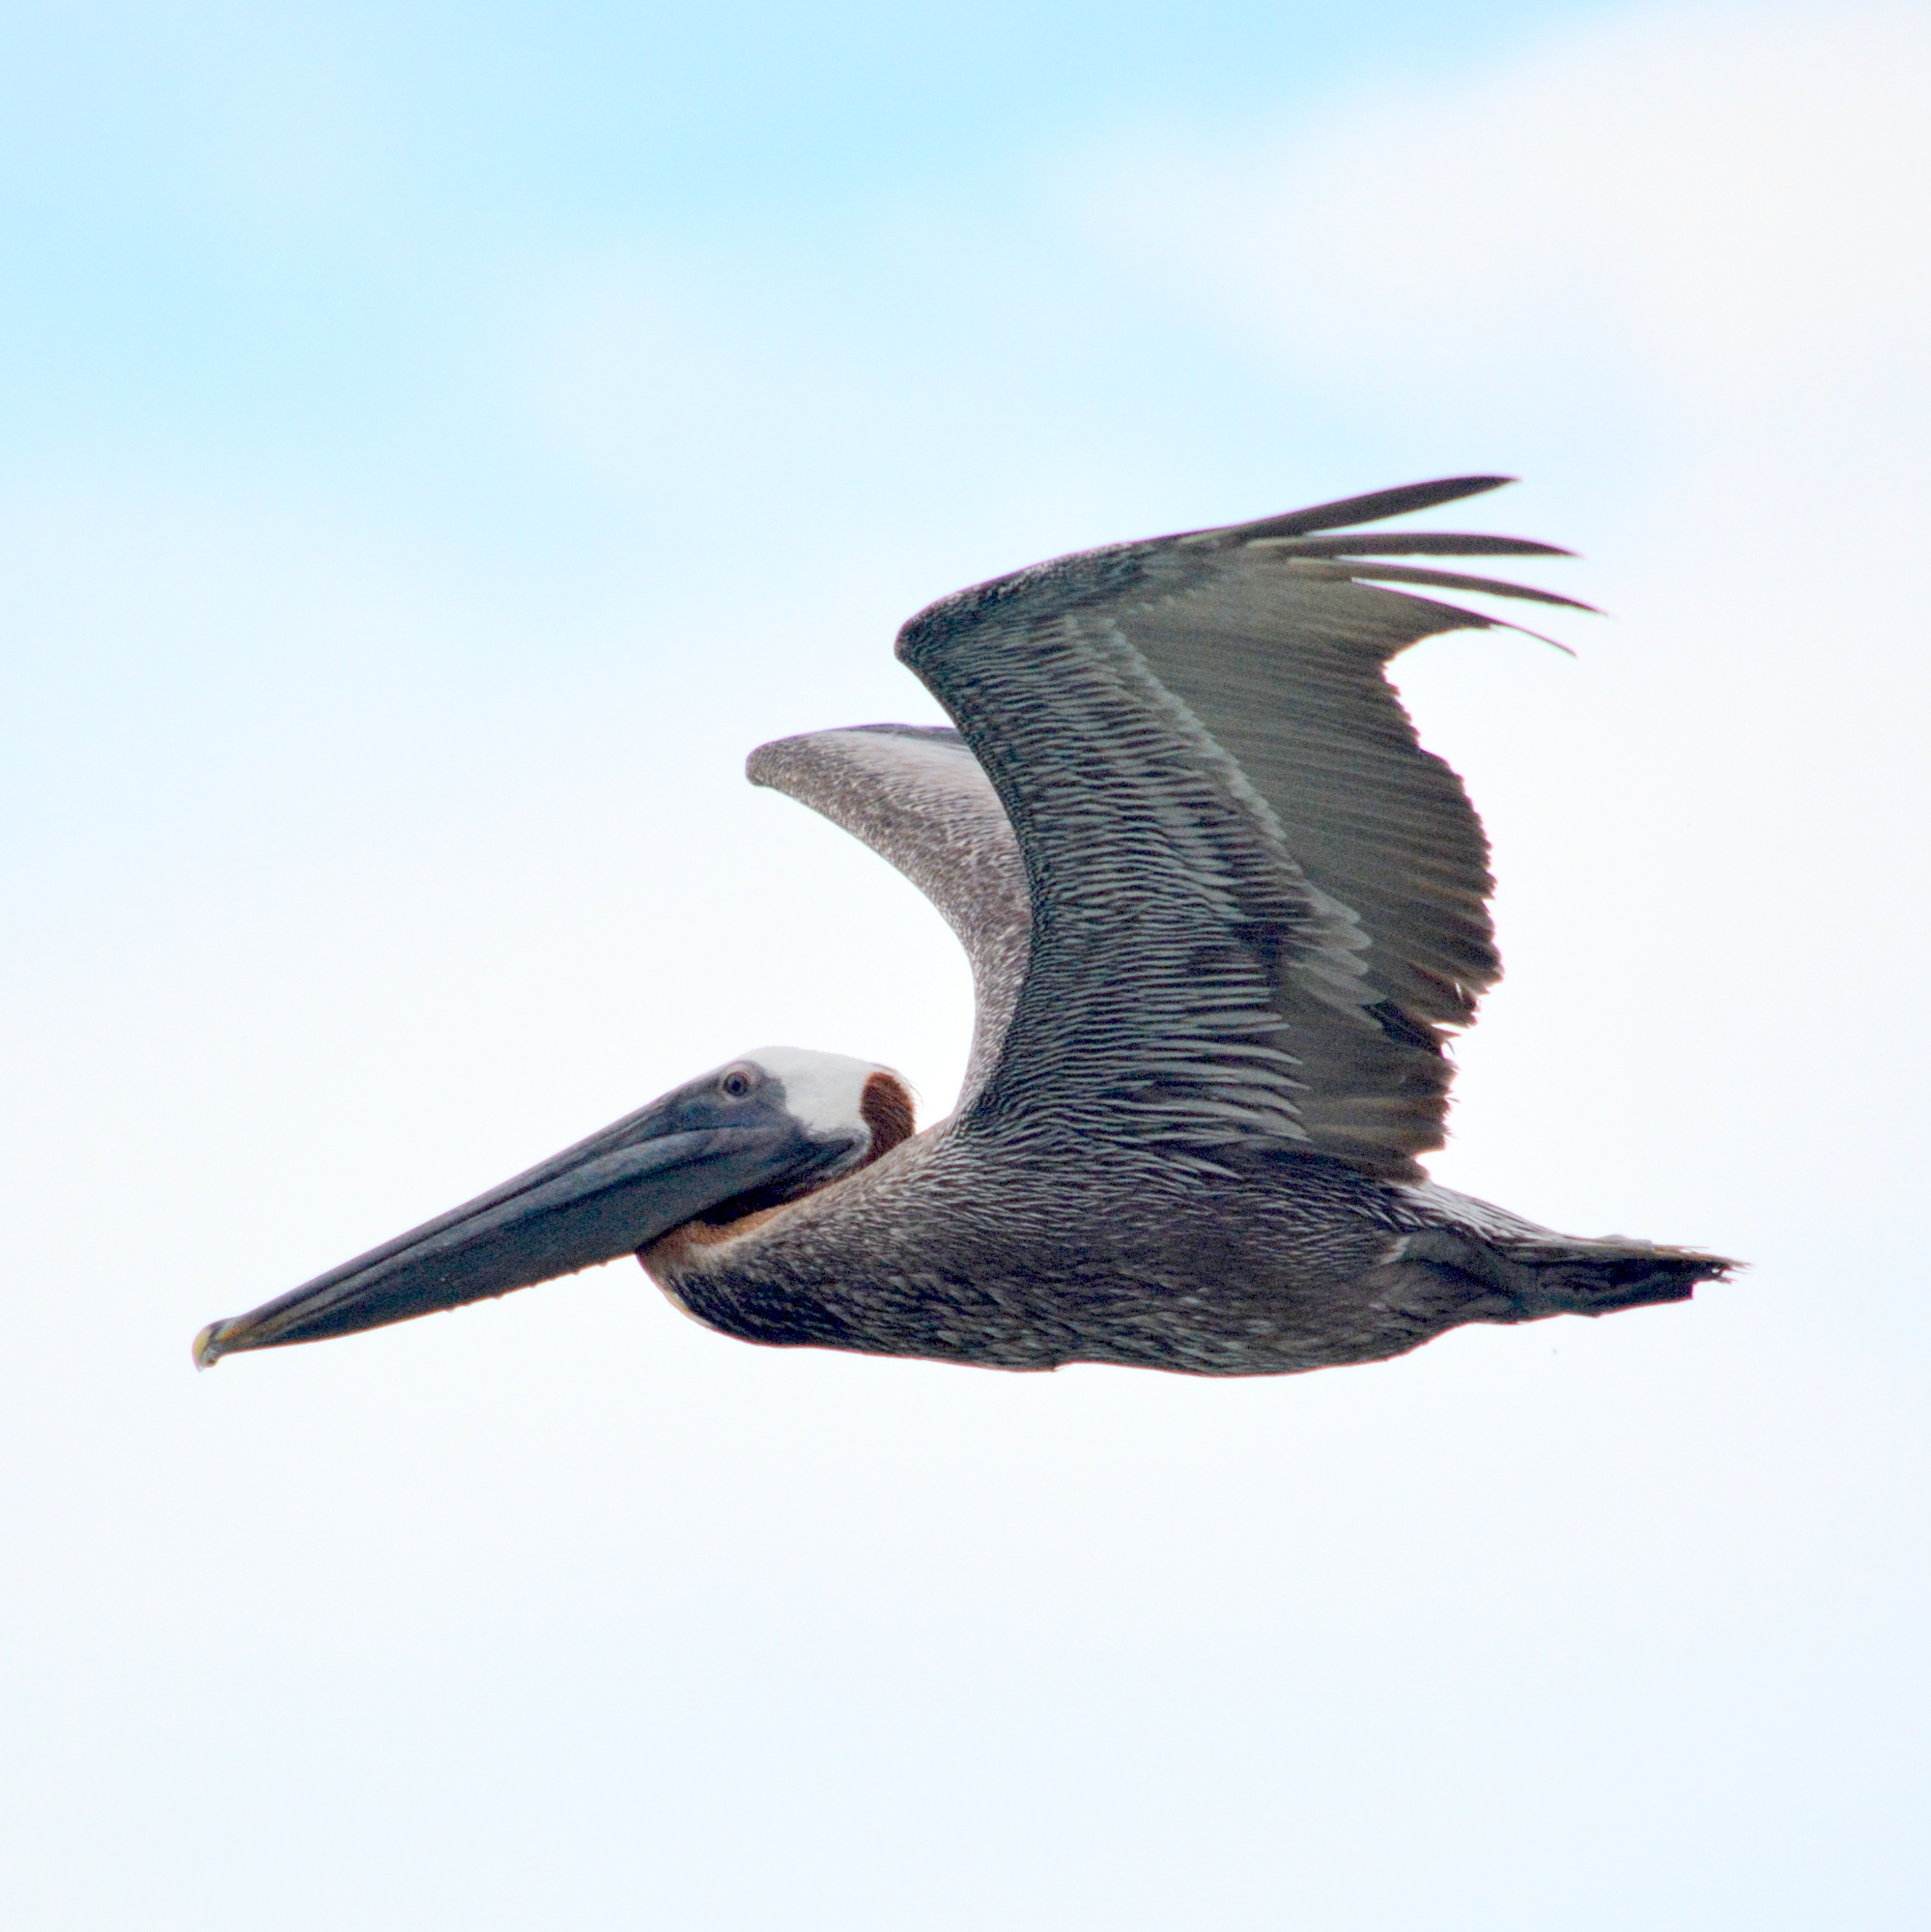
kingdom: Animalia
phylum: Chordata
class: Aves
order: Pelecaniformes
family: Pelecanidae
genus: Pelecanus
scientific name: Pelecanus occidentalis
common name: Brown pelican
